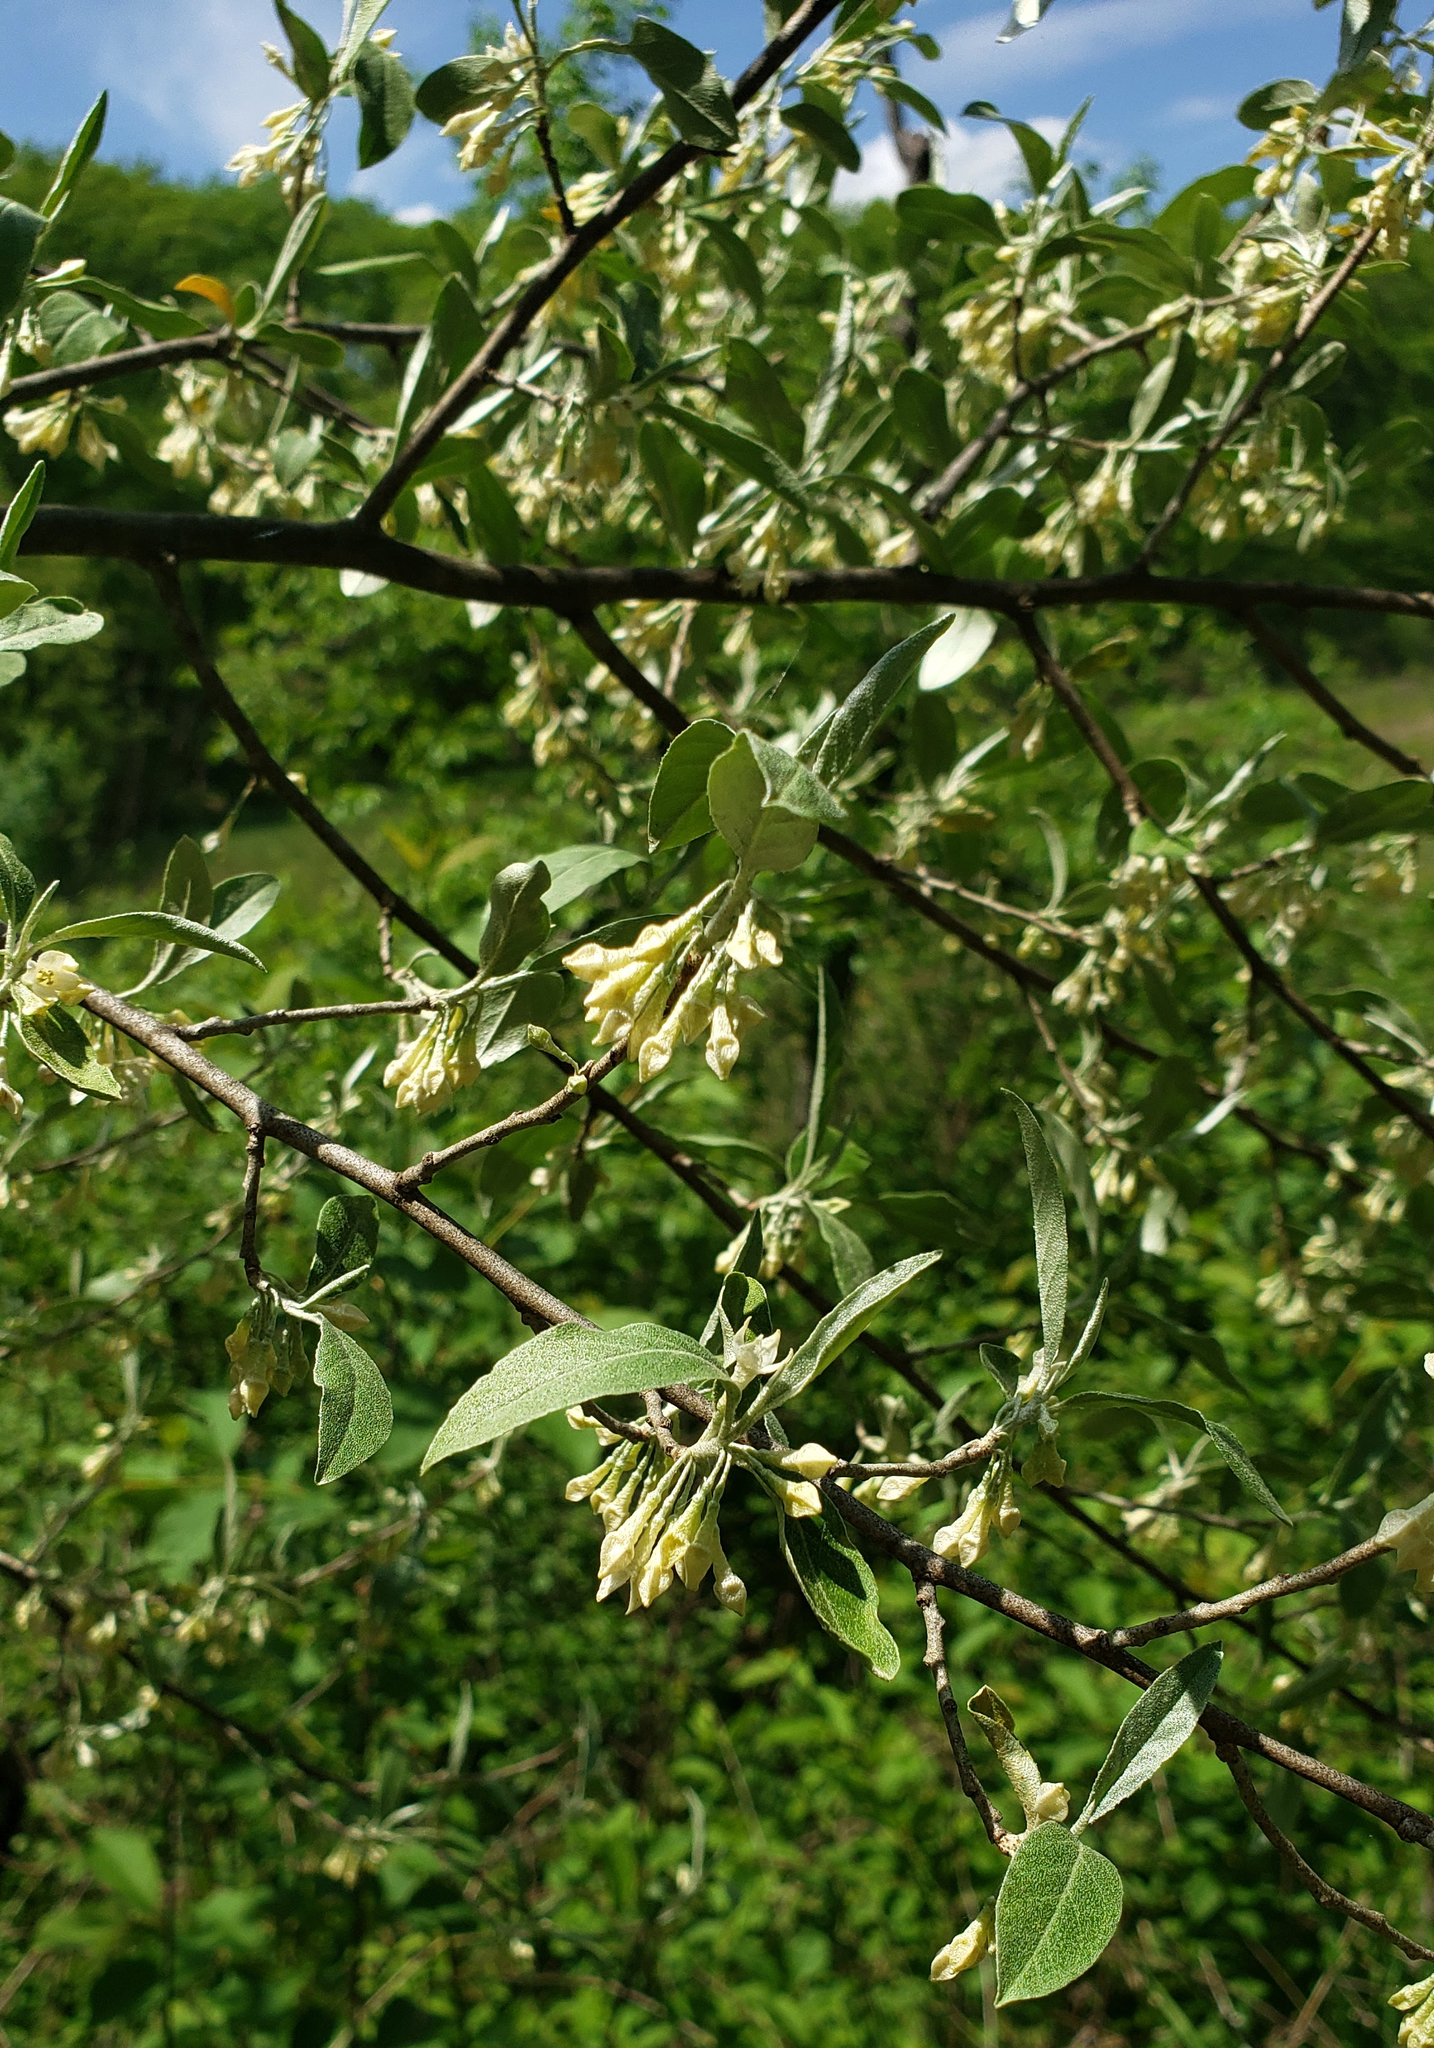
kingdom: Plantae
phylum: Tracheophyta
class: Magnoliopsida
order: Rosales
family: Elaeagnaceae
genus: Elaeagnus
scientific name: Elaeagnus umbellata
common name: Autumn olive
